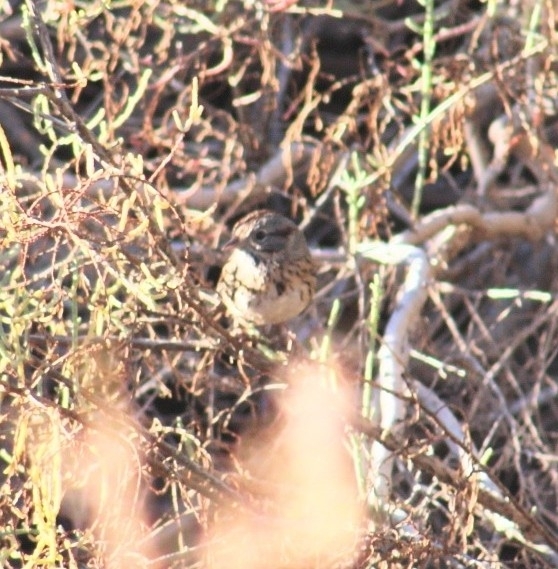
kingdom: Animalia
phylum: Chordata
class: Aves
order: Passeriformes
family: Passerellidae
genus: Melospiza
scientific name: Melospiza lincolnii
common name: Lincoln's sparrow
